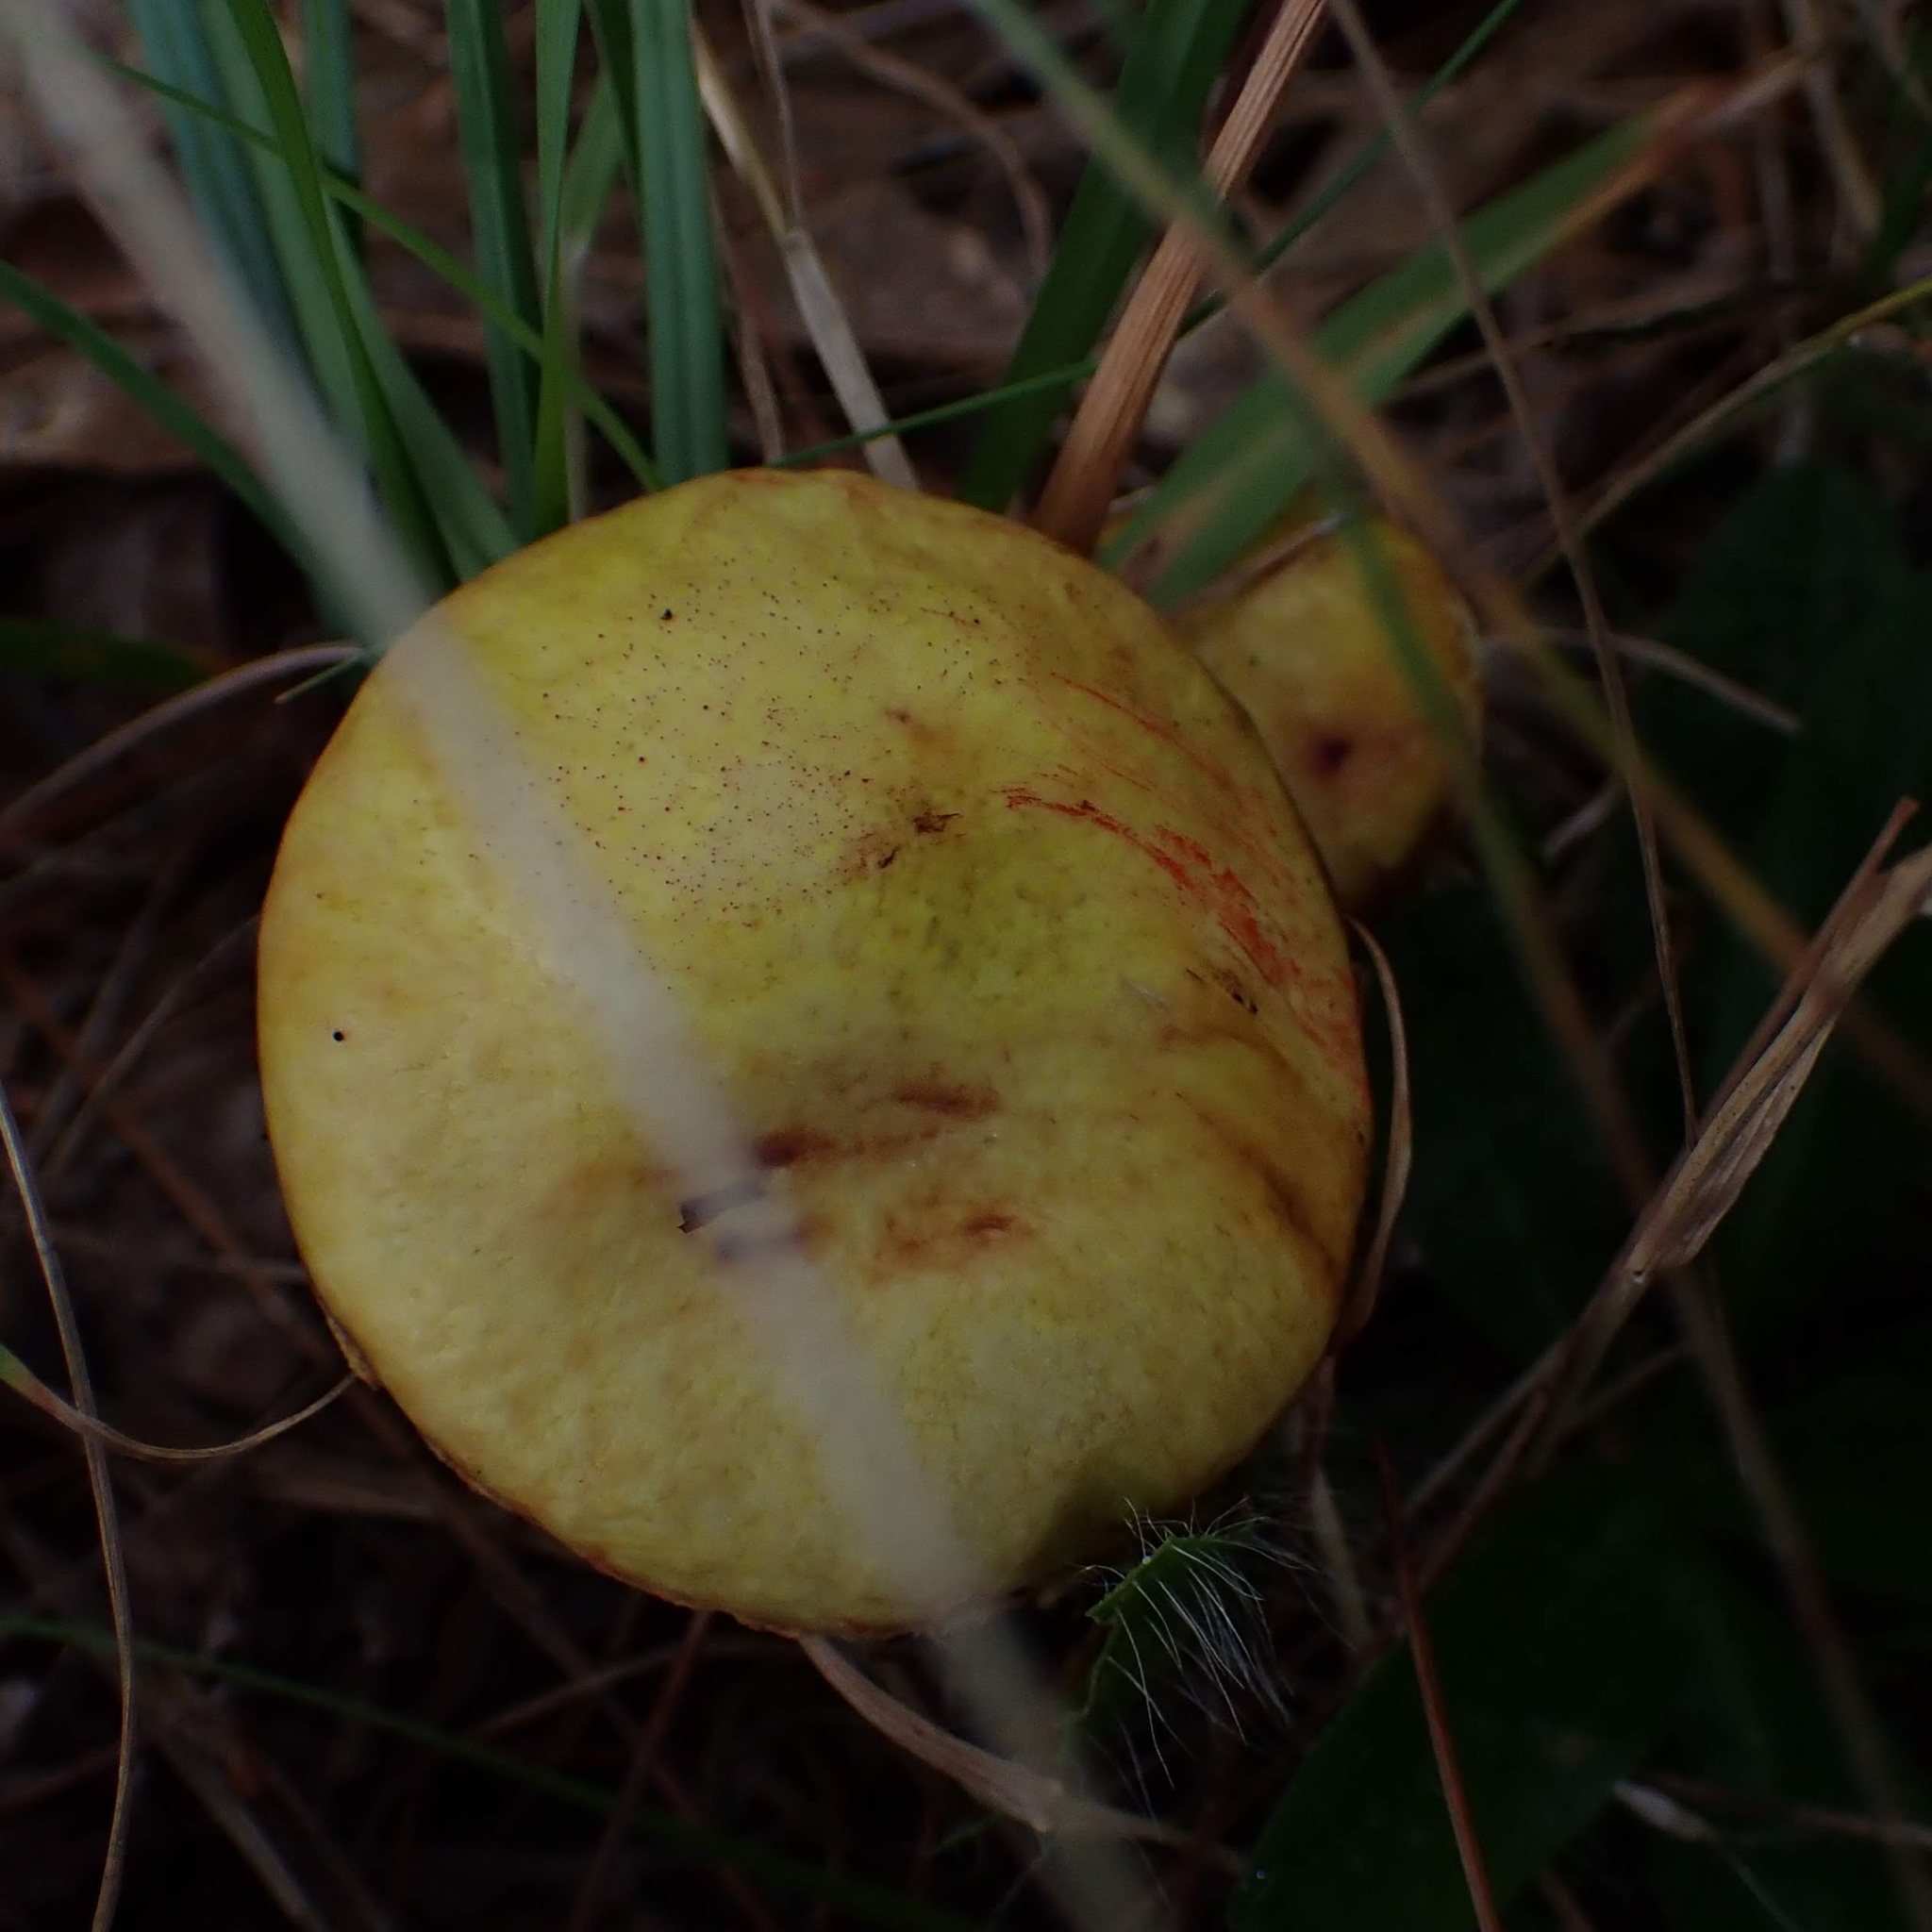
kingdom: Fungi
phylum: Basidiomycota
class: Agaricomycetes
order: Boletales
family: Suillaceae
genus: Suillus
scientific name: Suillus americanus
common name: Chicken fat mushroom
